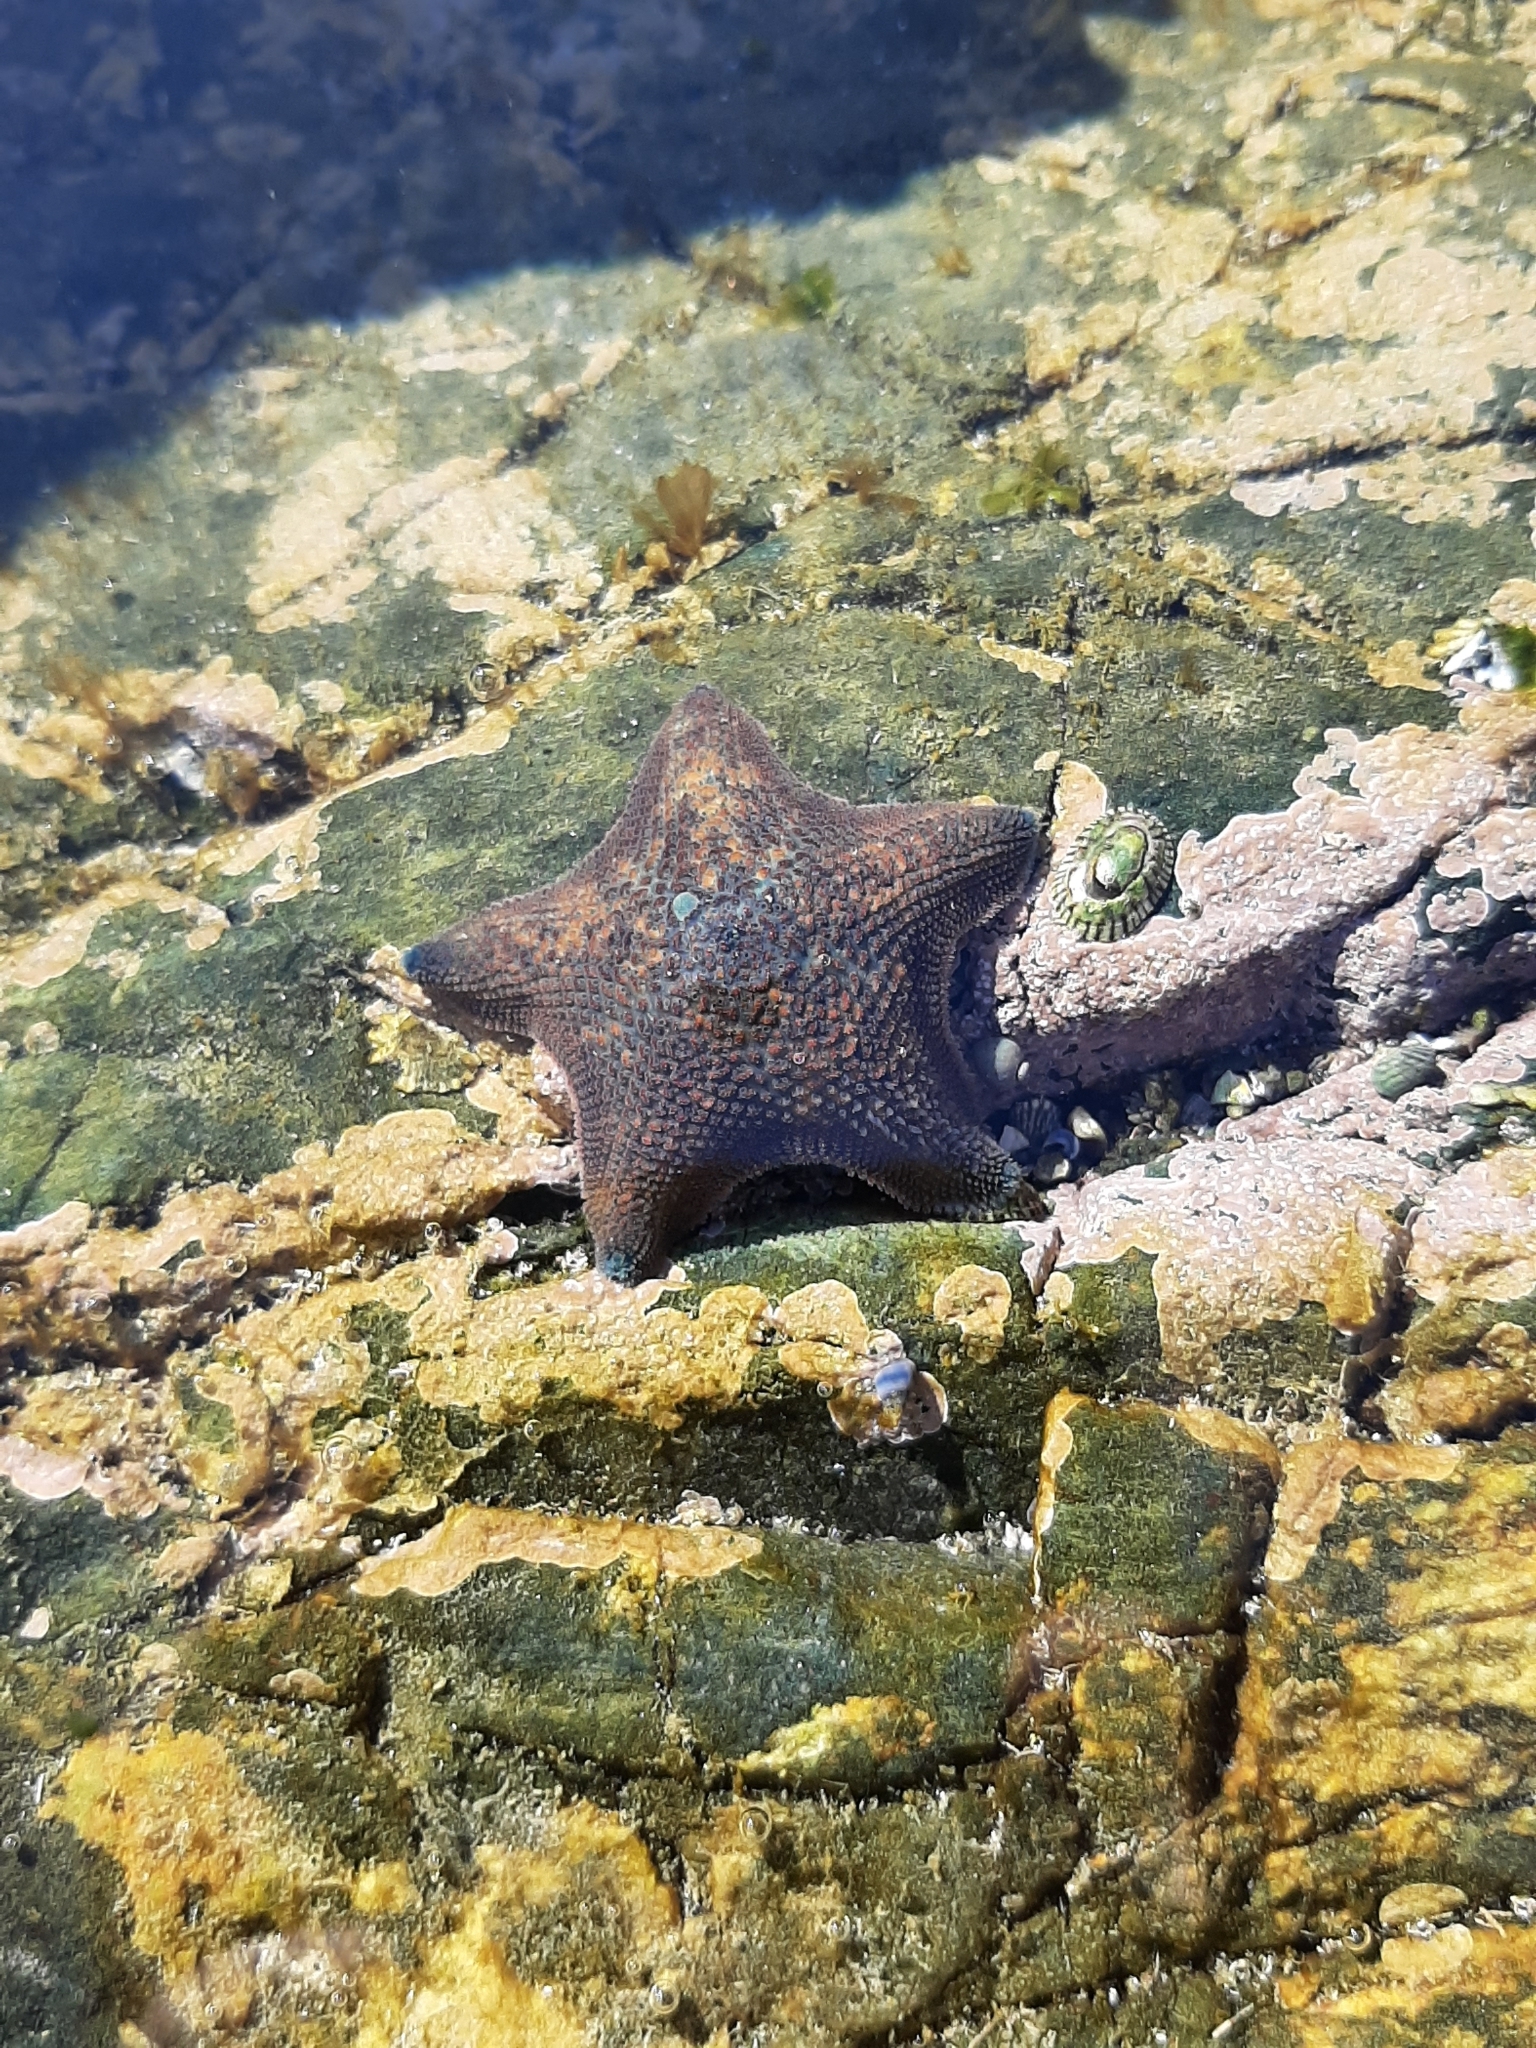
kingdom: Animalia
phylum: Echinodermata
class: Asteroidea
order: Valvatida
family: Asterinidae
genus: Patiriella
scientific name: Patiriella regularis
